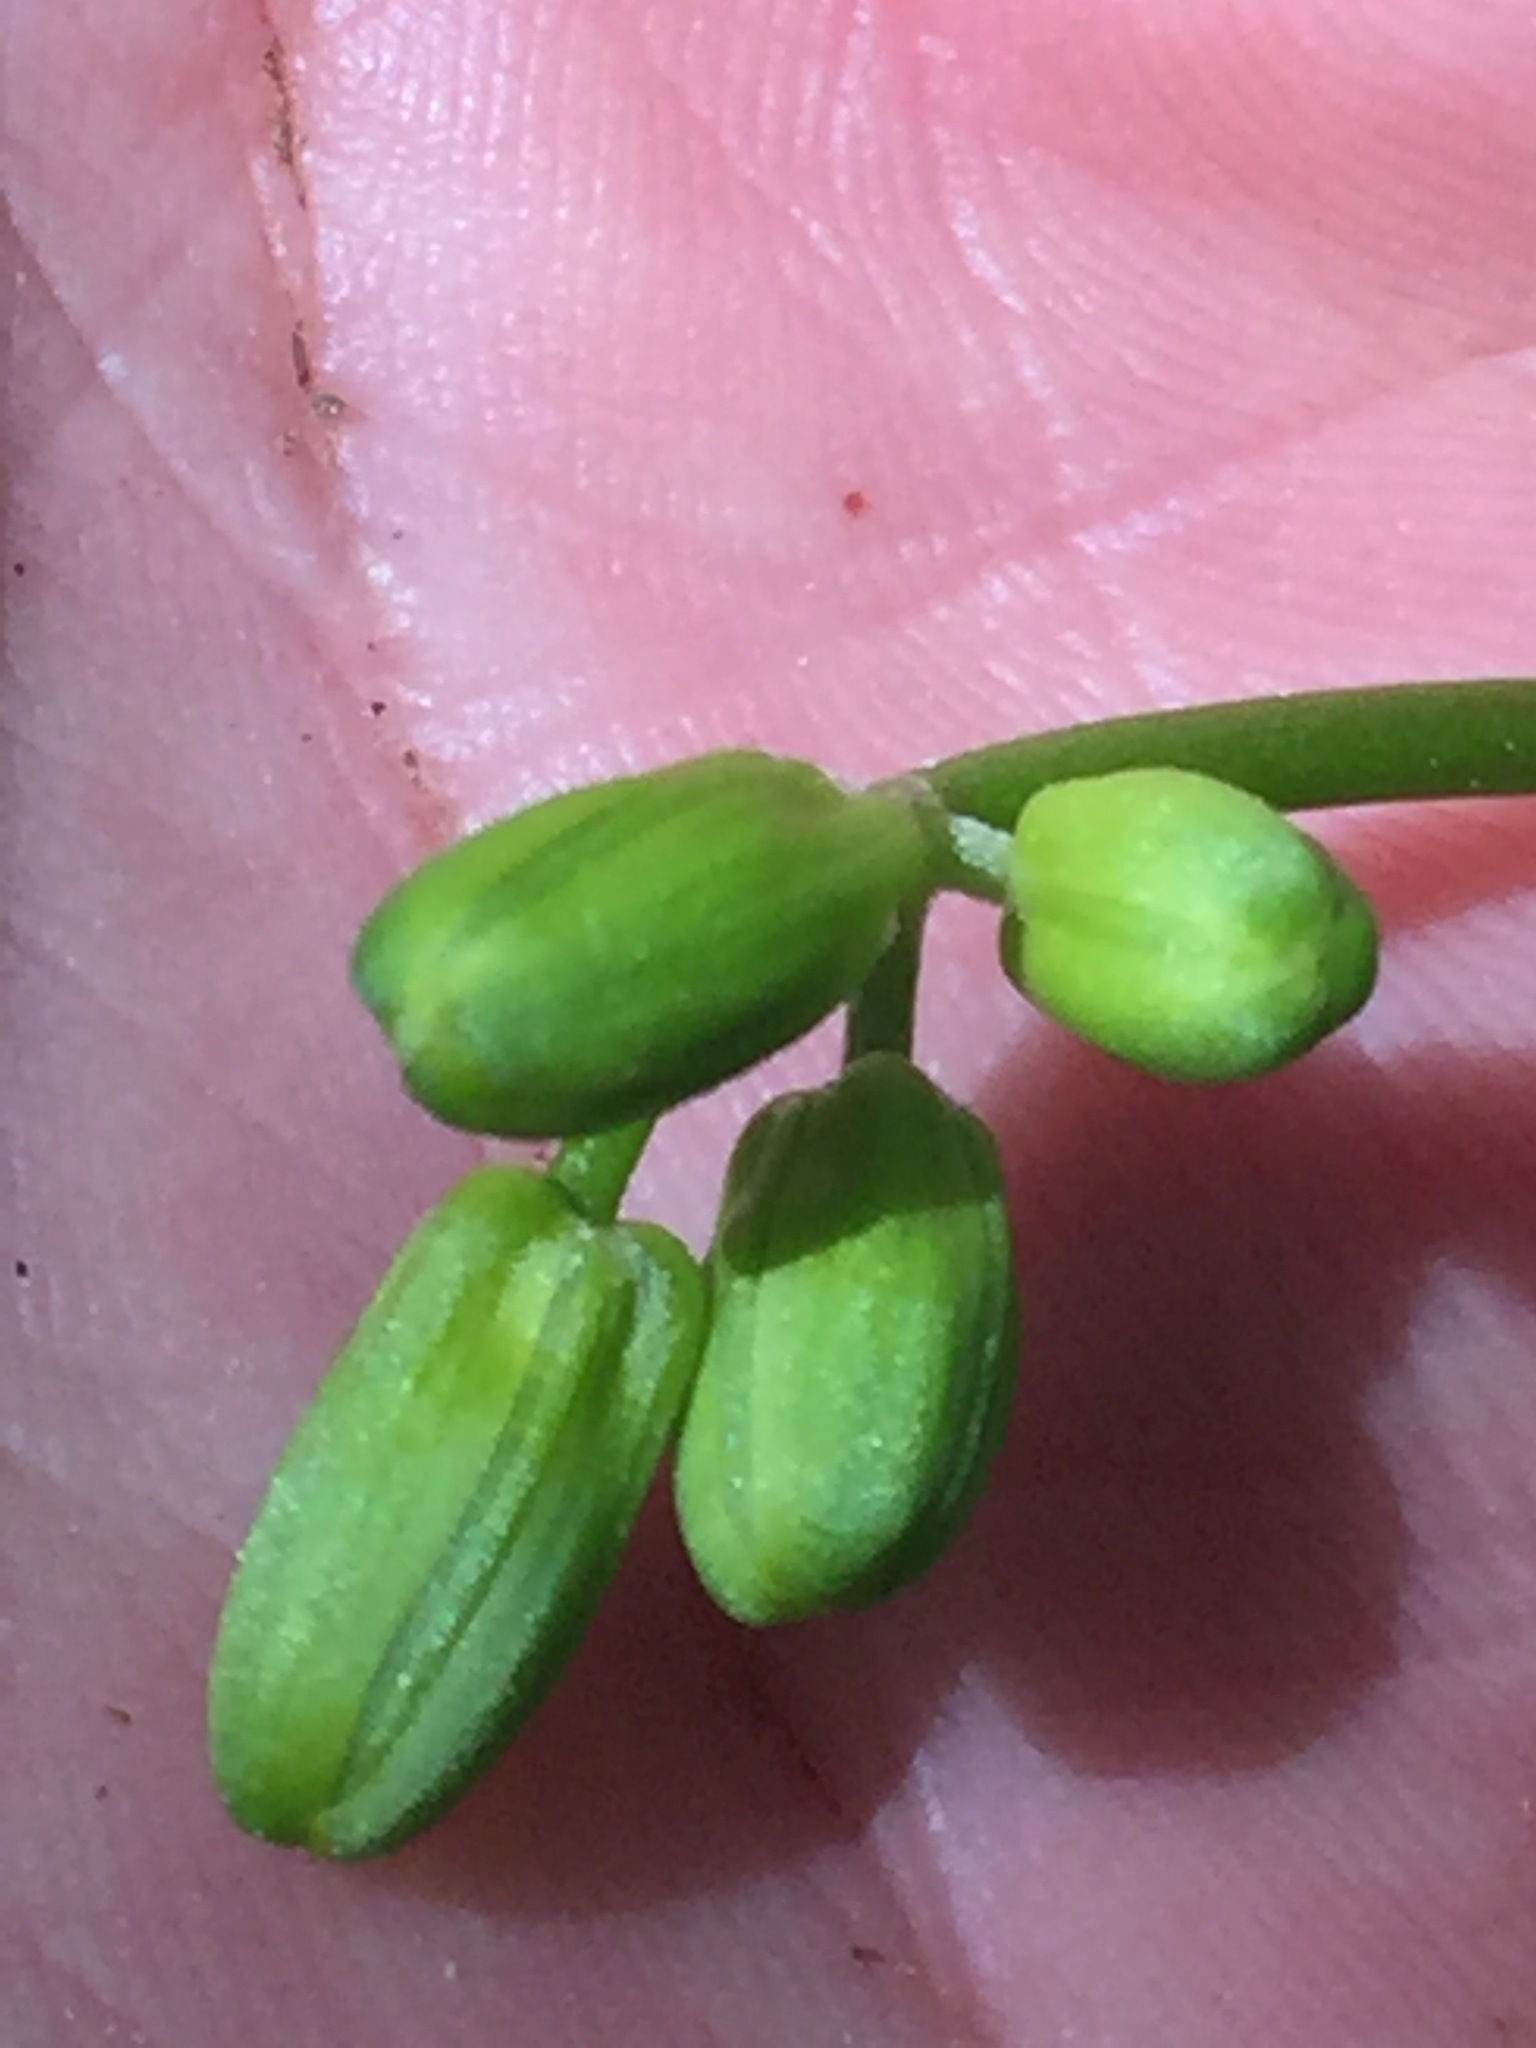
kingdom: Plantae
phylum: Tracheophyta
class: Liliopsida
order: Liliales
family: Liliaceae
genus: Clintonia
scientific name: Clintonia borealis
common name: Yellow clintonia
